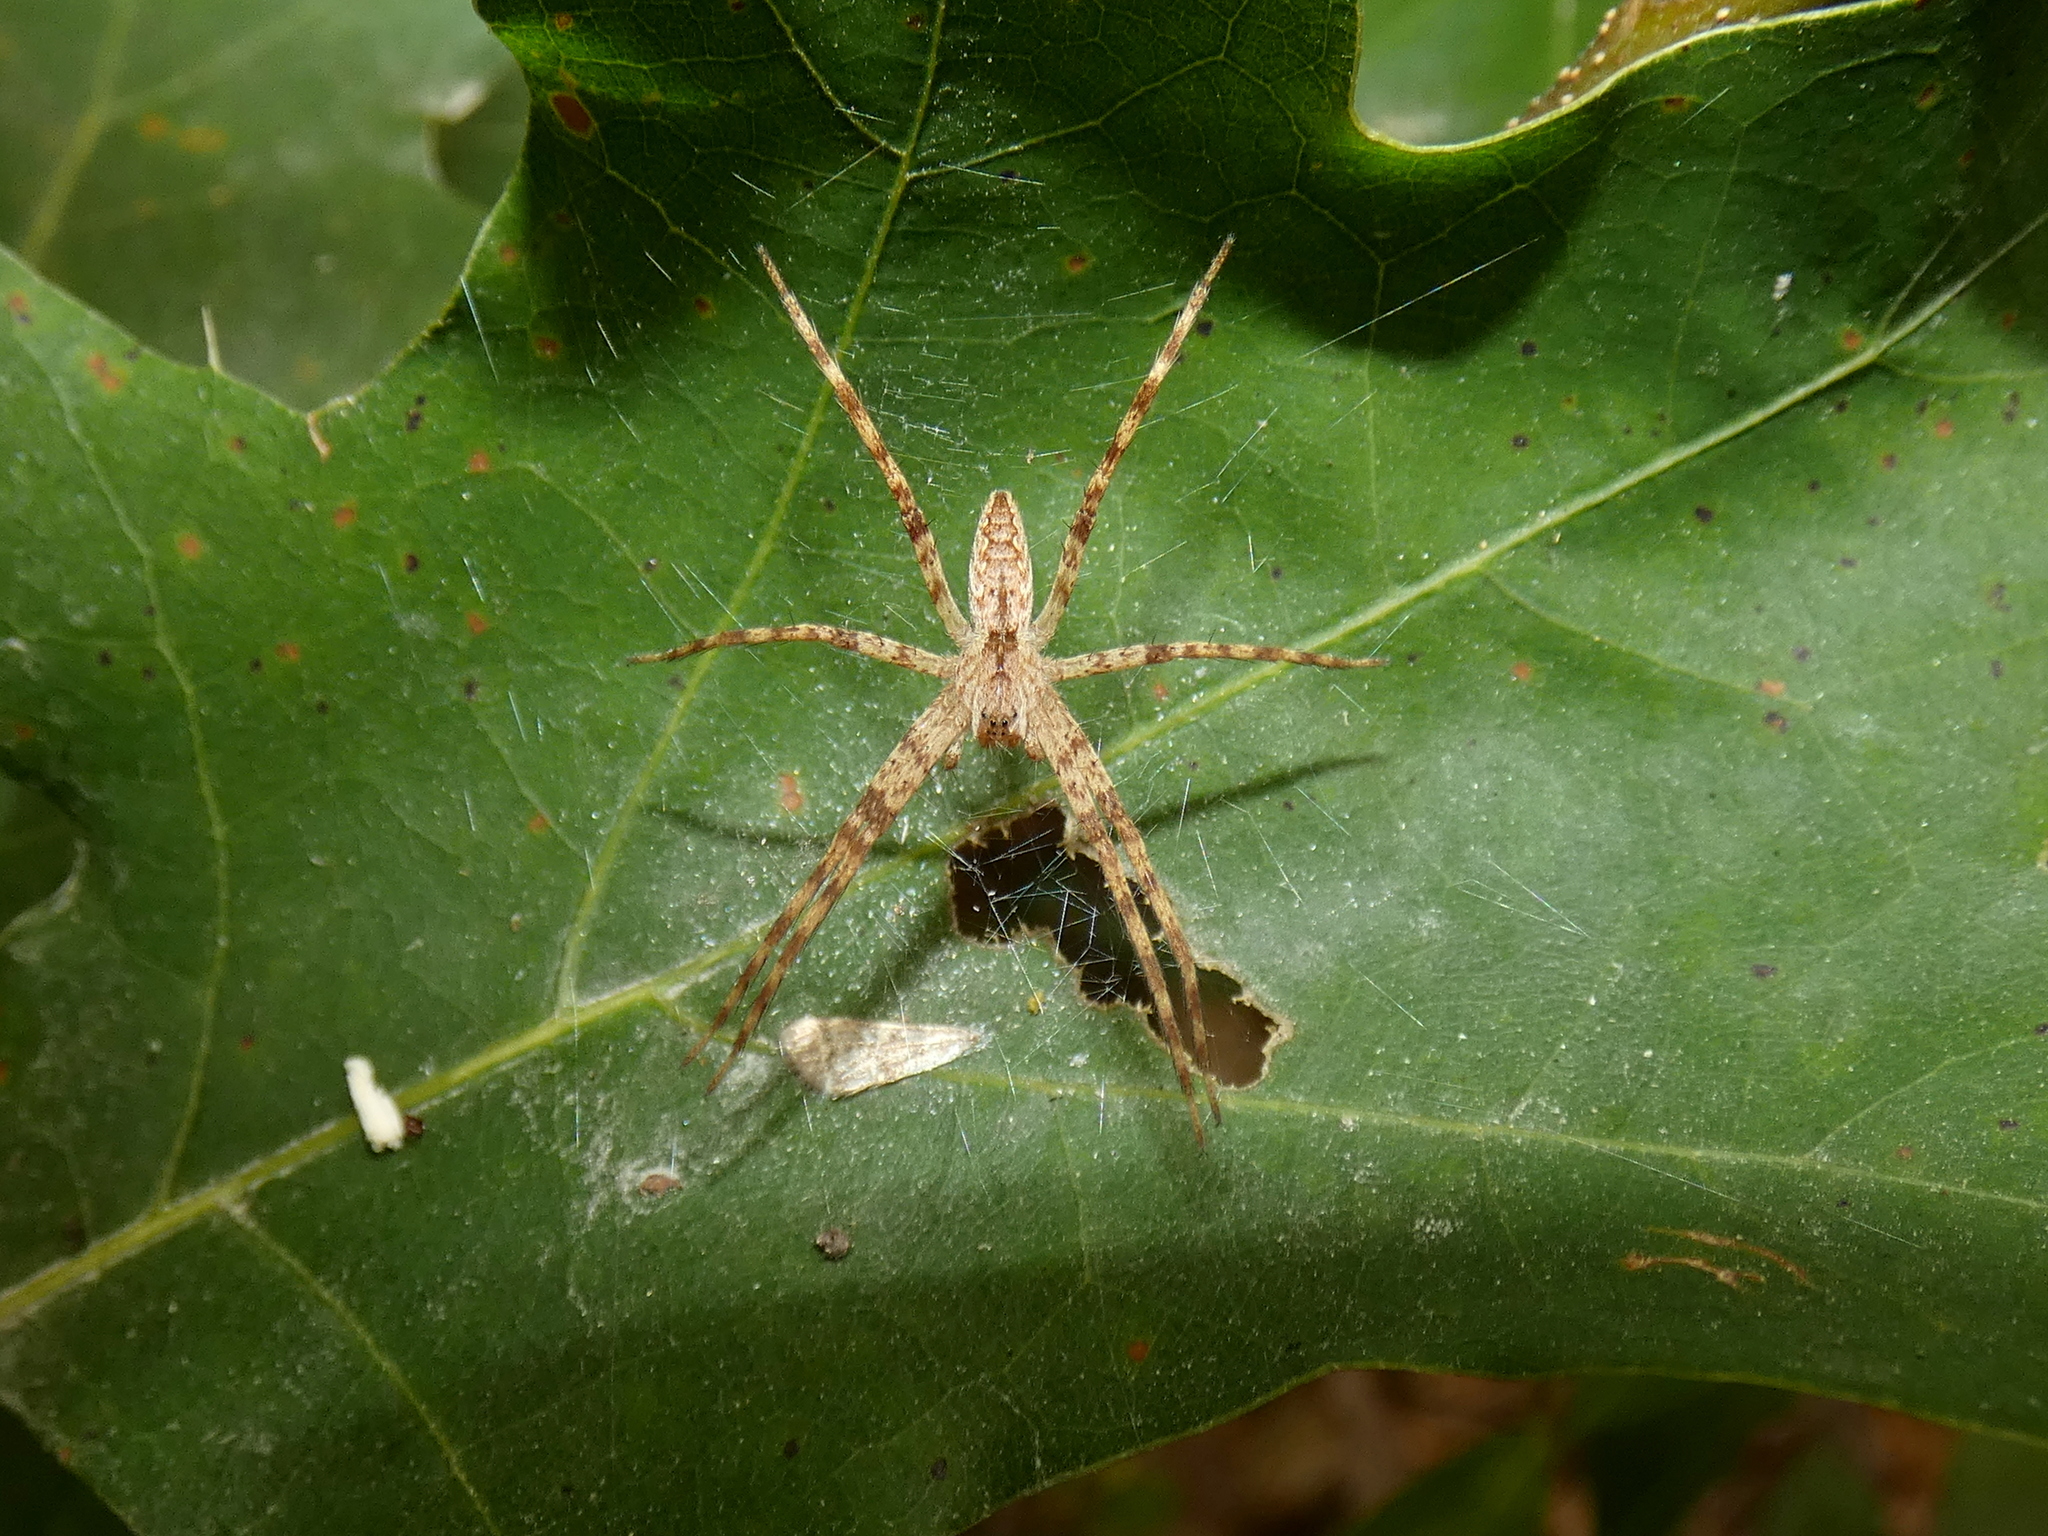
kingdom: Animalia
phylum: Arthropoda
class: Arachnida
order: Araneae
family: Pisauridae
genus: Pisaurina
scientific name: Pisaurina mira
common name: American nursery web spider
